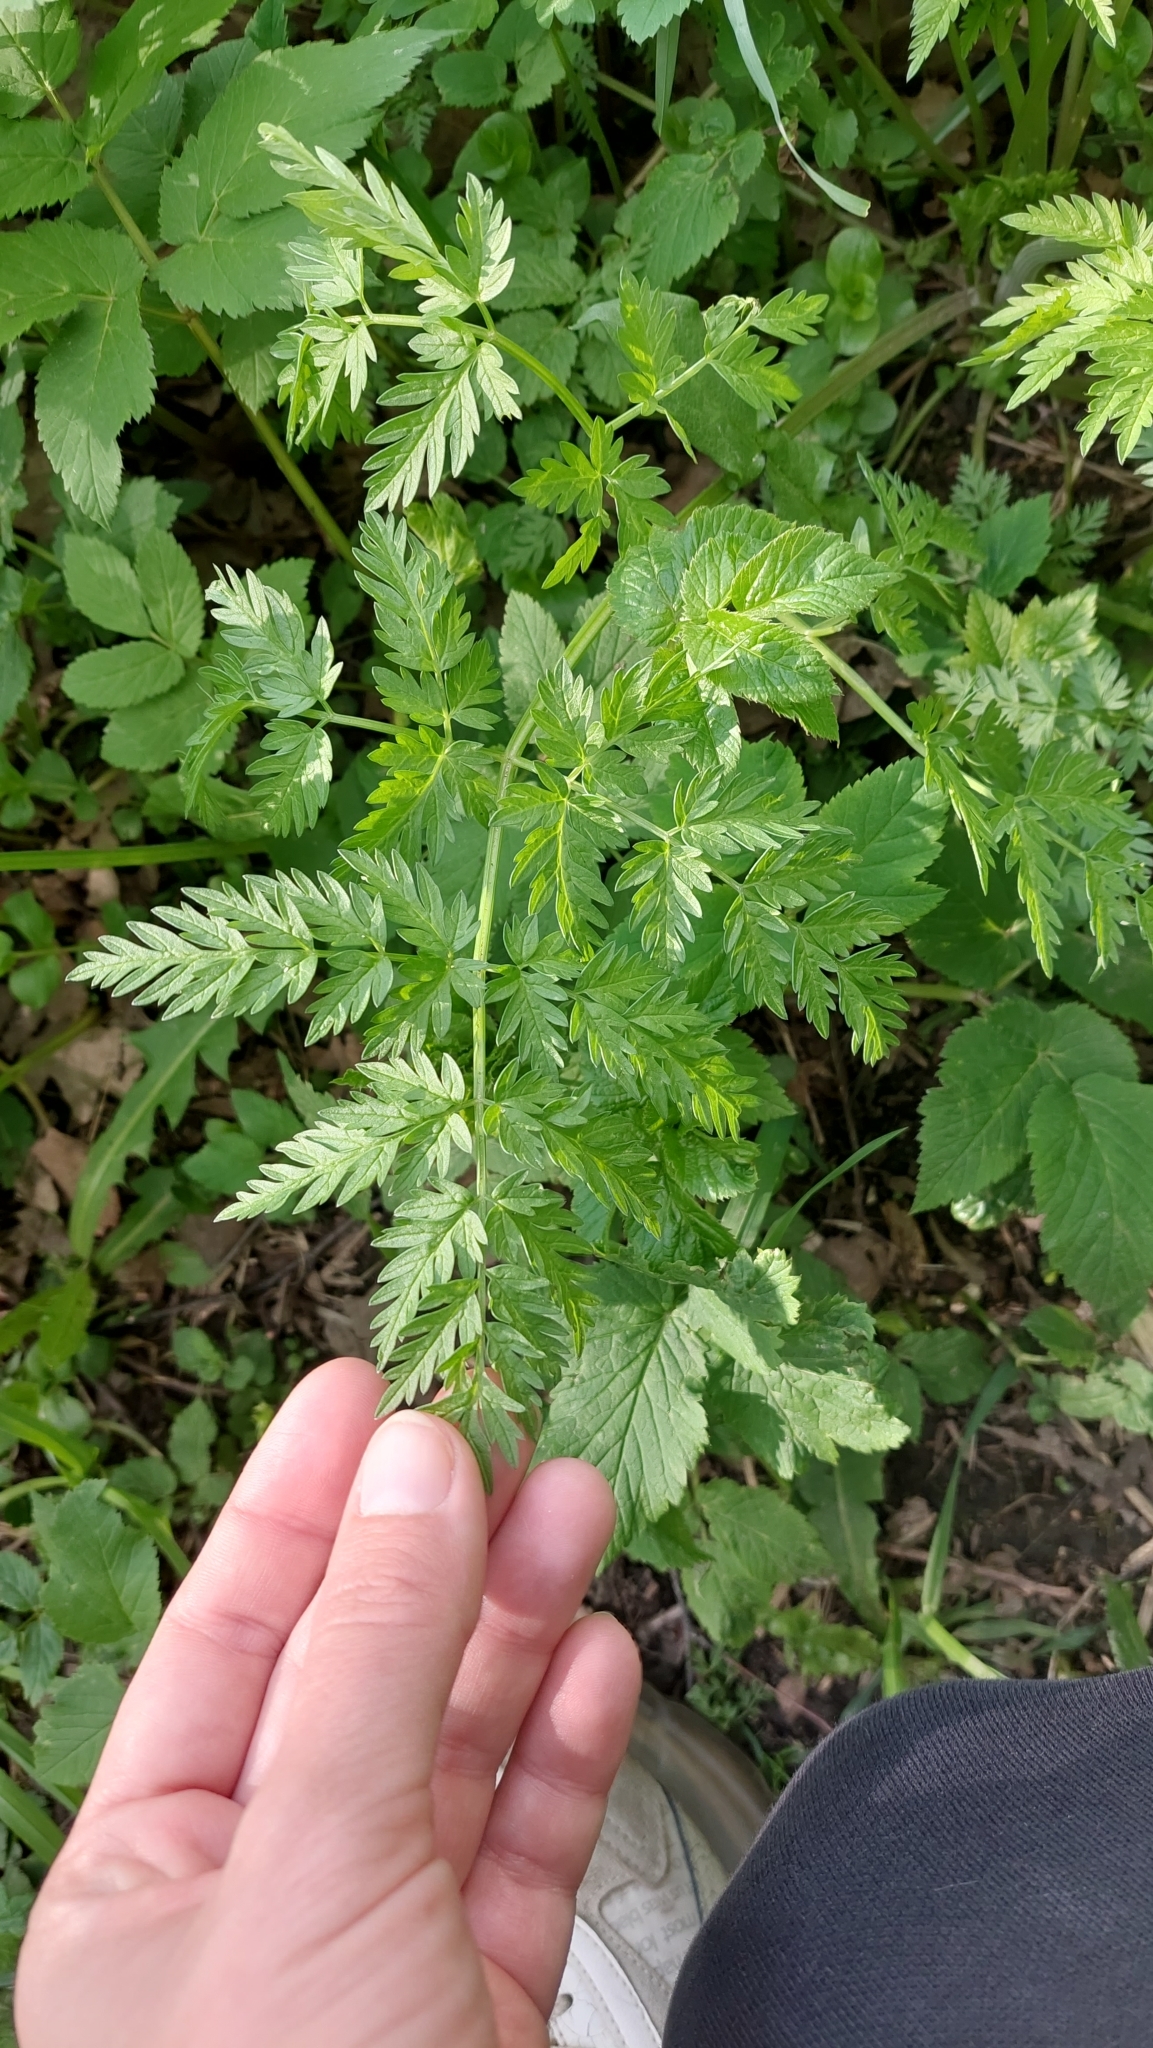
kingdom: Plantae
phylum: Tracheophyta
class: Magnoliopsida
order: Apiales
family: Apiaceae
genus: Anthriscus
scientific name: Anthriscus sylvestris
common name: Cow parsley
